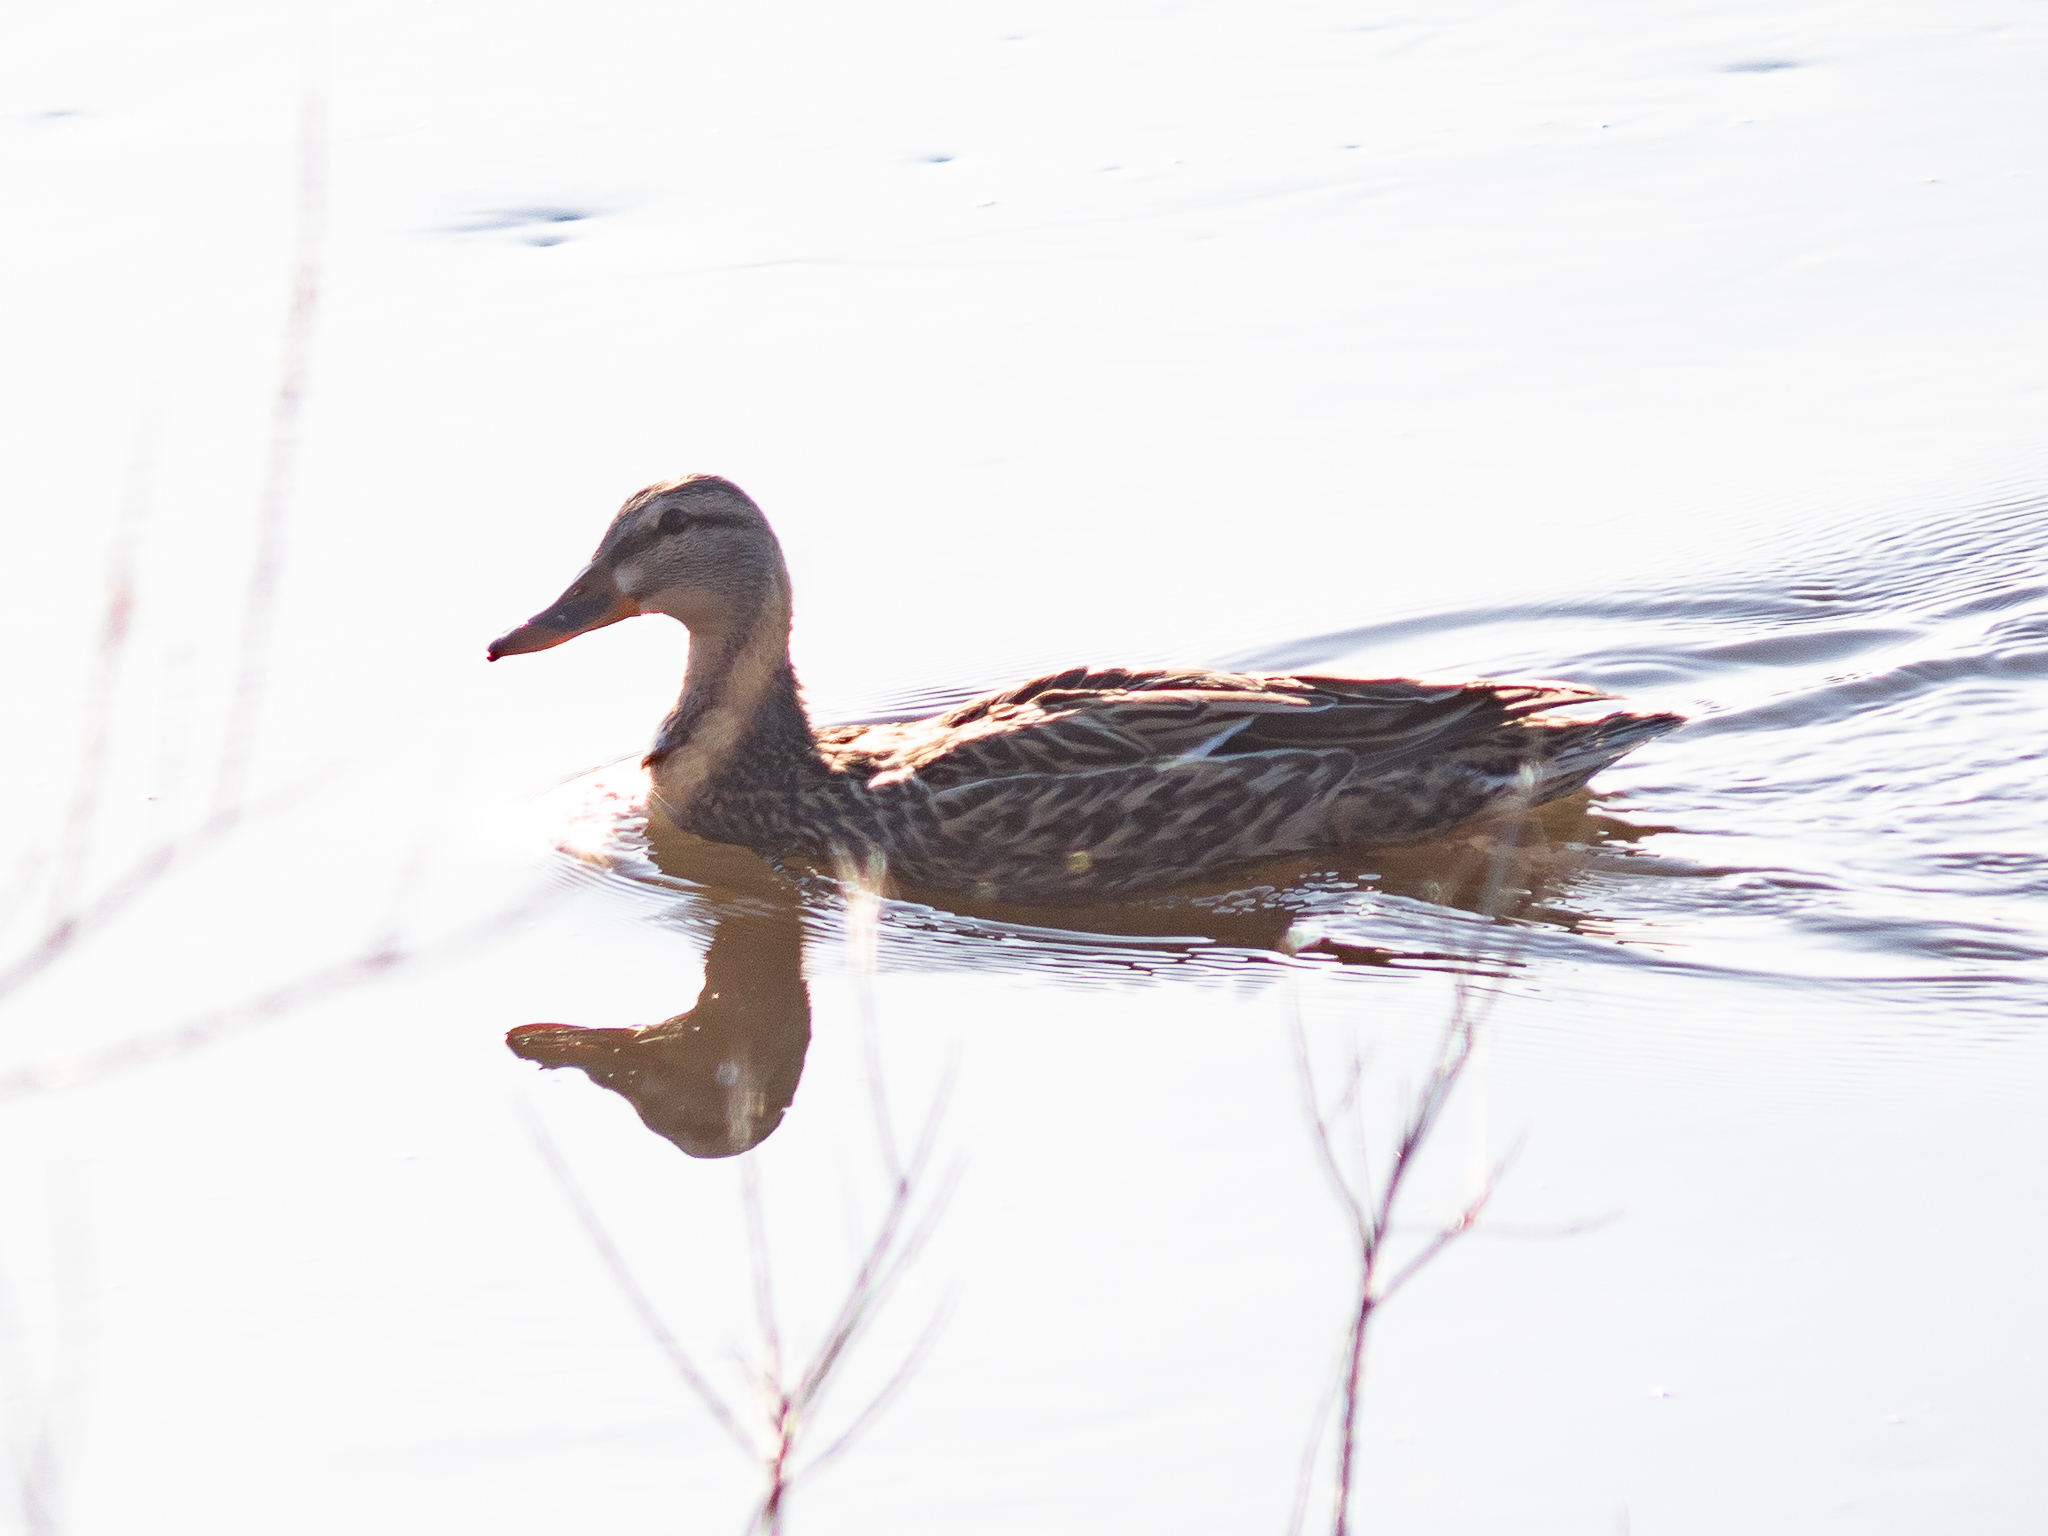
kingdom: Animalia
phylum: Chordata
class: Aves
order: Anseriformes
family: Anatidae
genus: Anas
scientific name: Anas platyrhynchos
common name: Mallard
